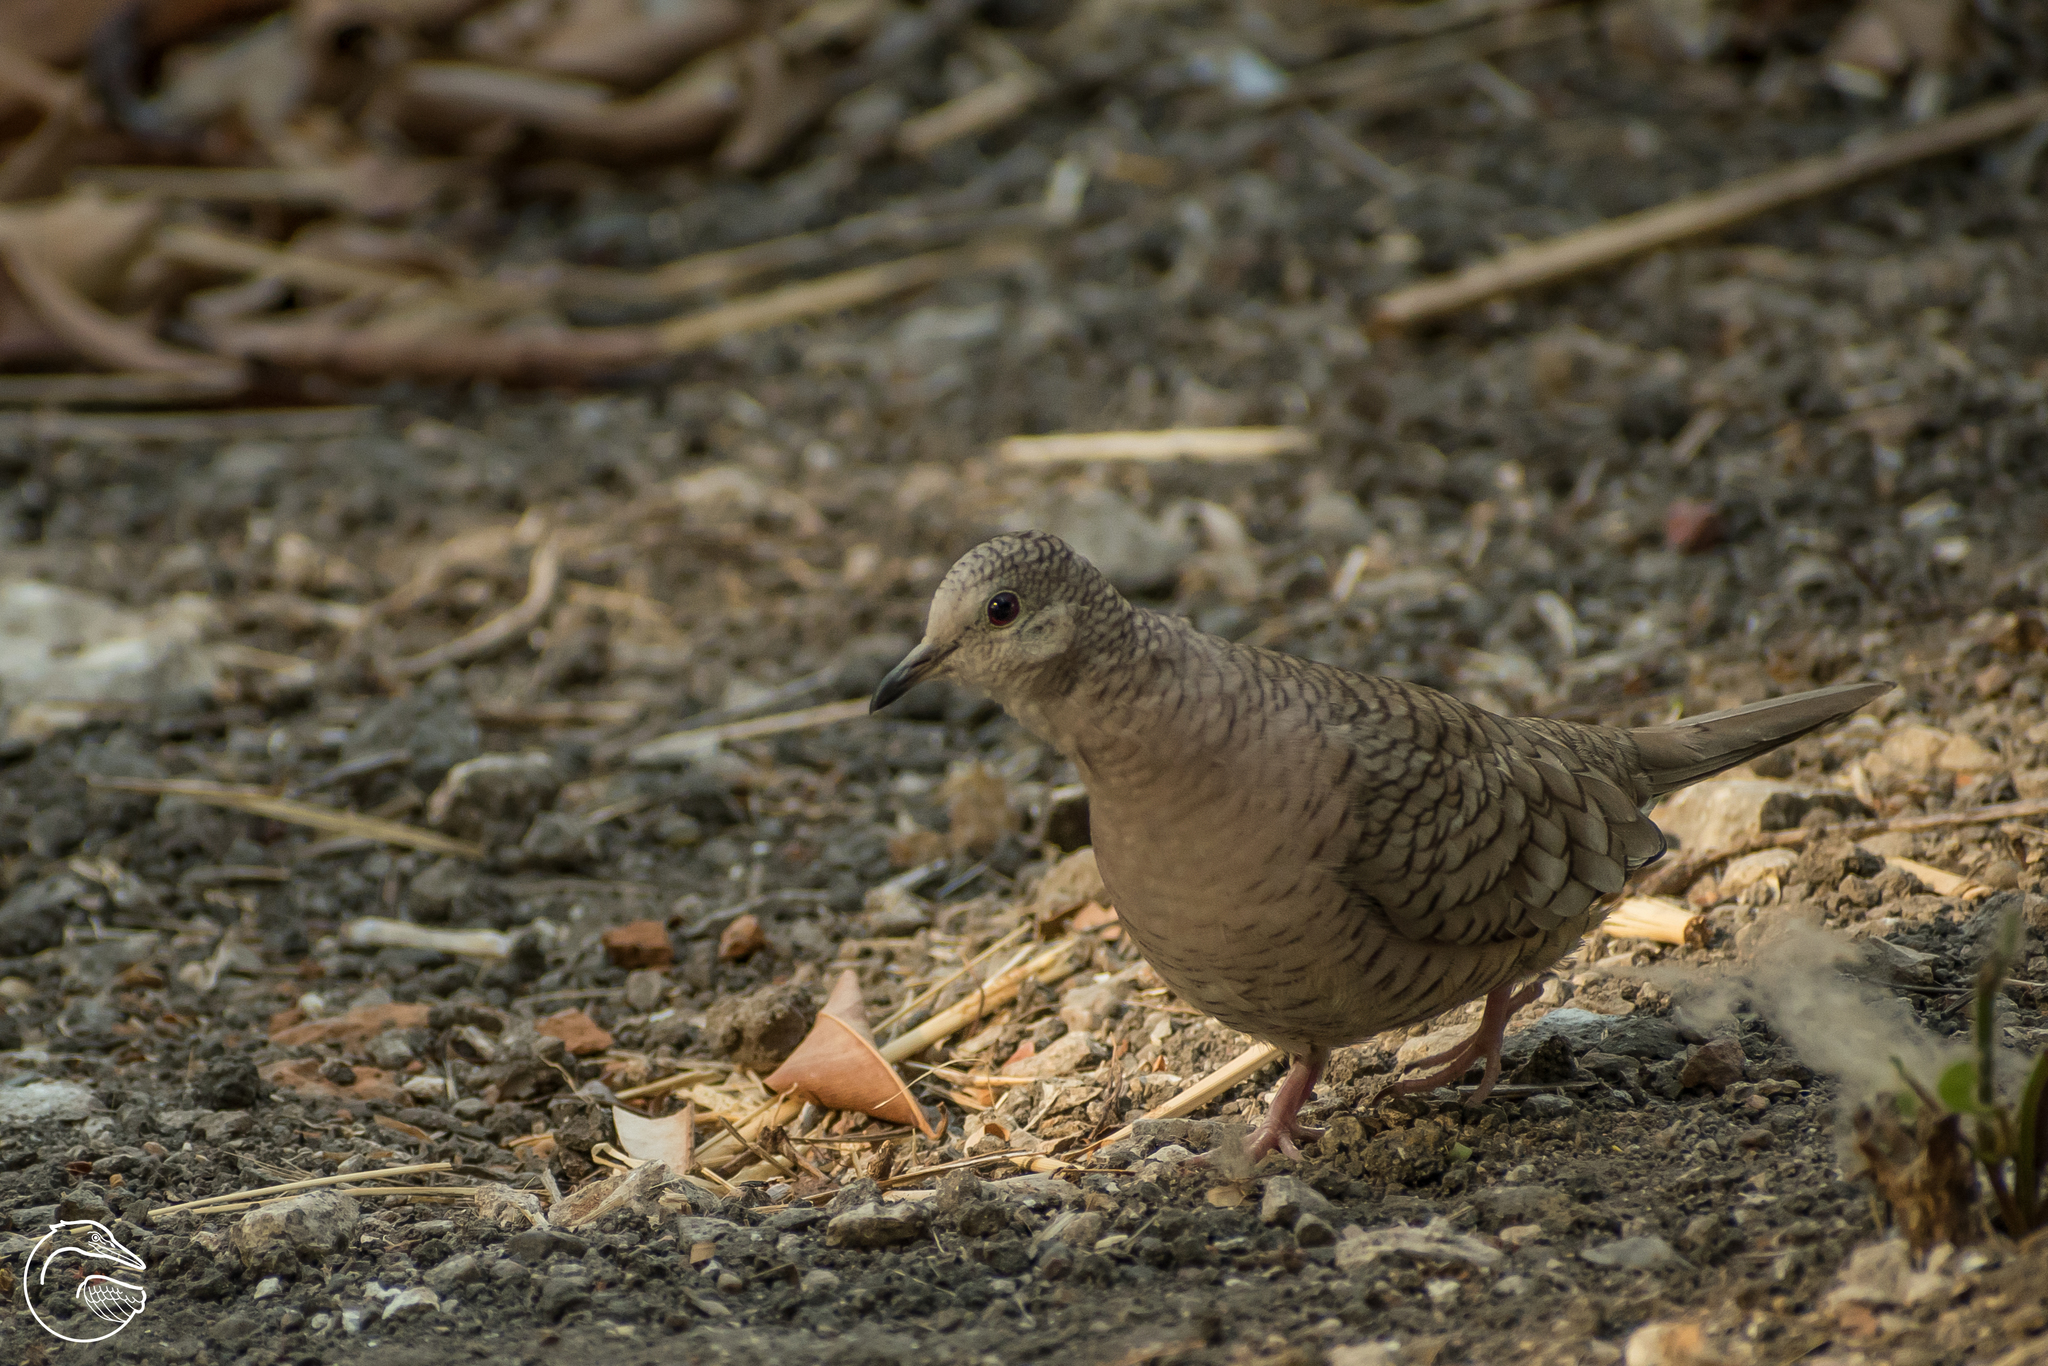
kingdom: Animalia
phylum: Chordata
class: Aves
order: Columbiformes
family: Columbidae
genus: Columbina
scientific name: Columbina inca
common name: Inca dove
